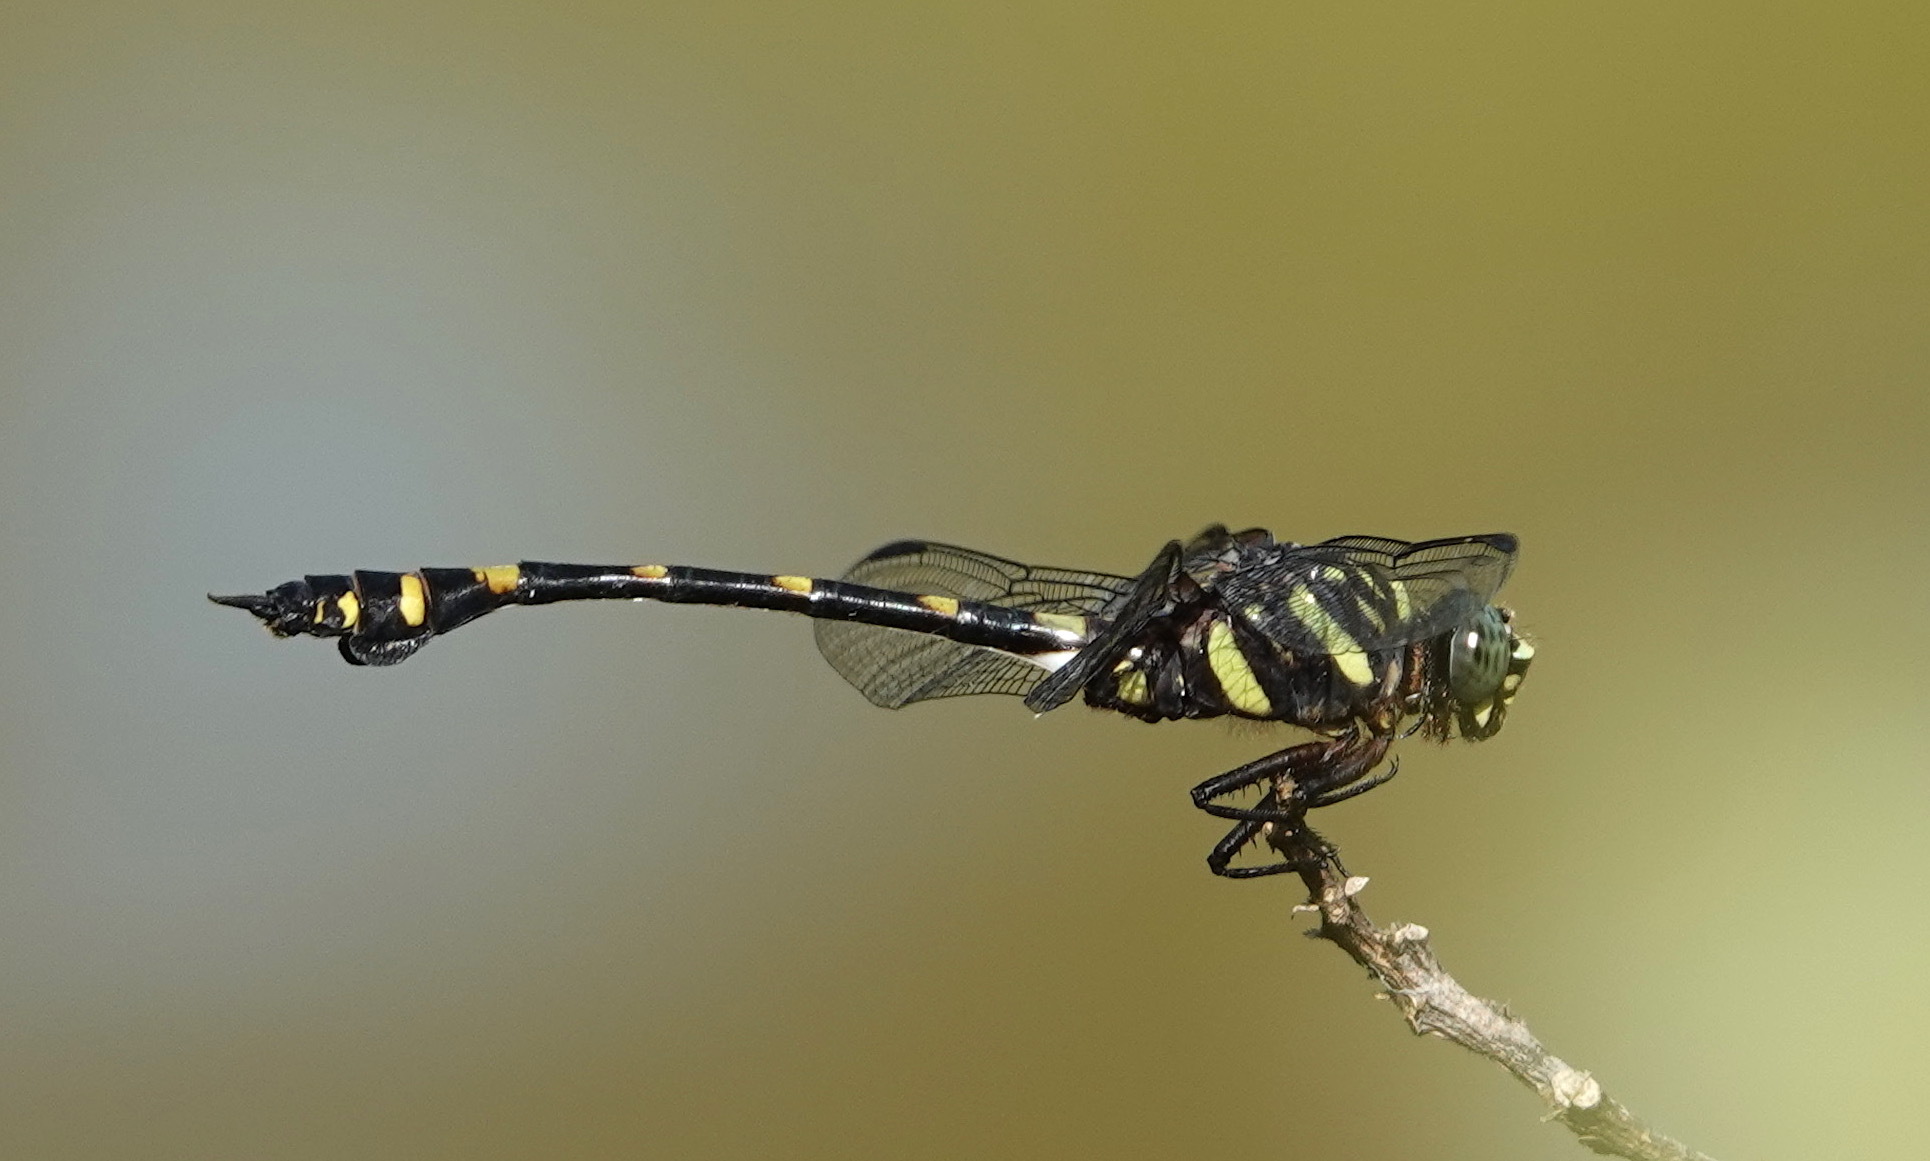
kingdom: Animalia
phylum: Arthropoda
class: Insecta
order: Odonata
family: Gomphidae
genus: Ictinogomphus
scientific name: Ictinogomphus decoratus
